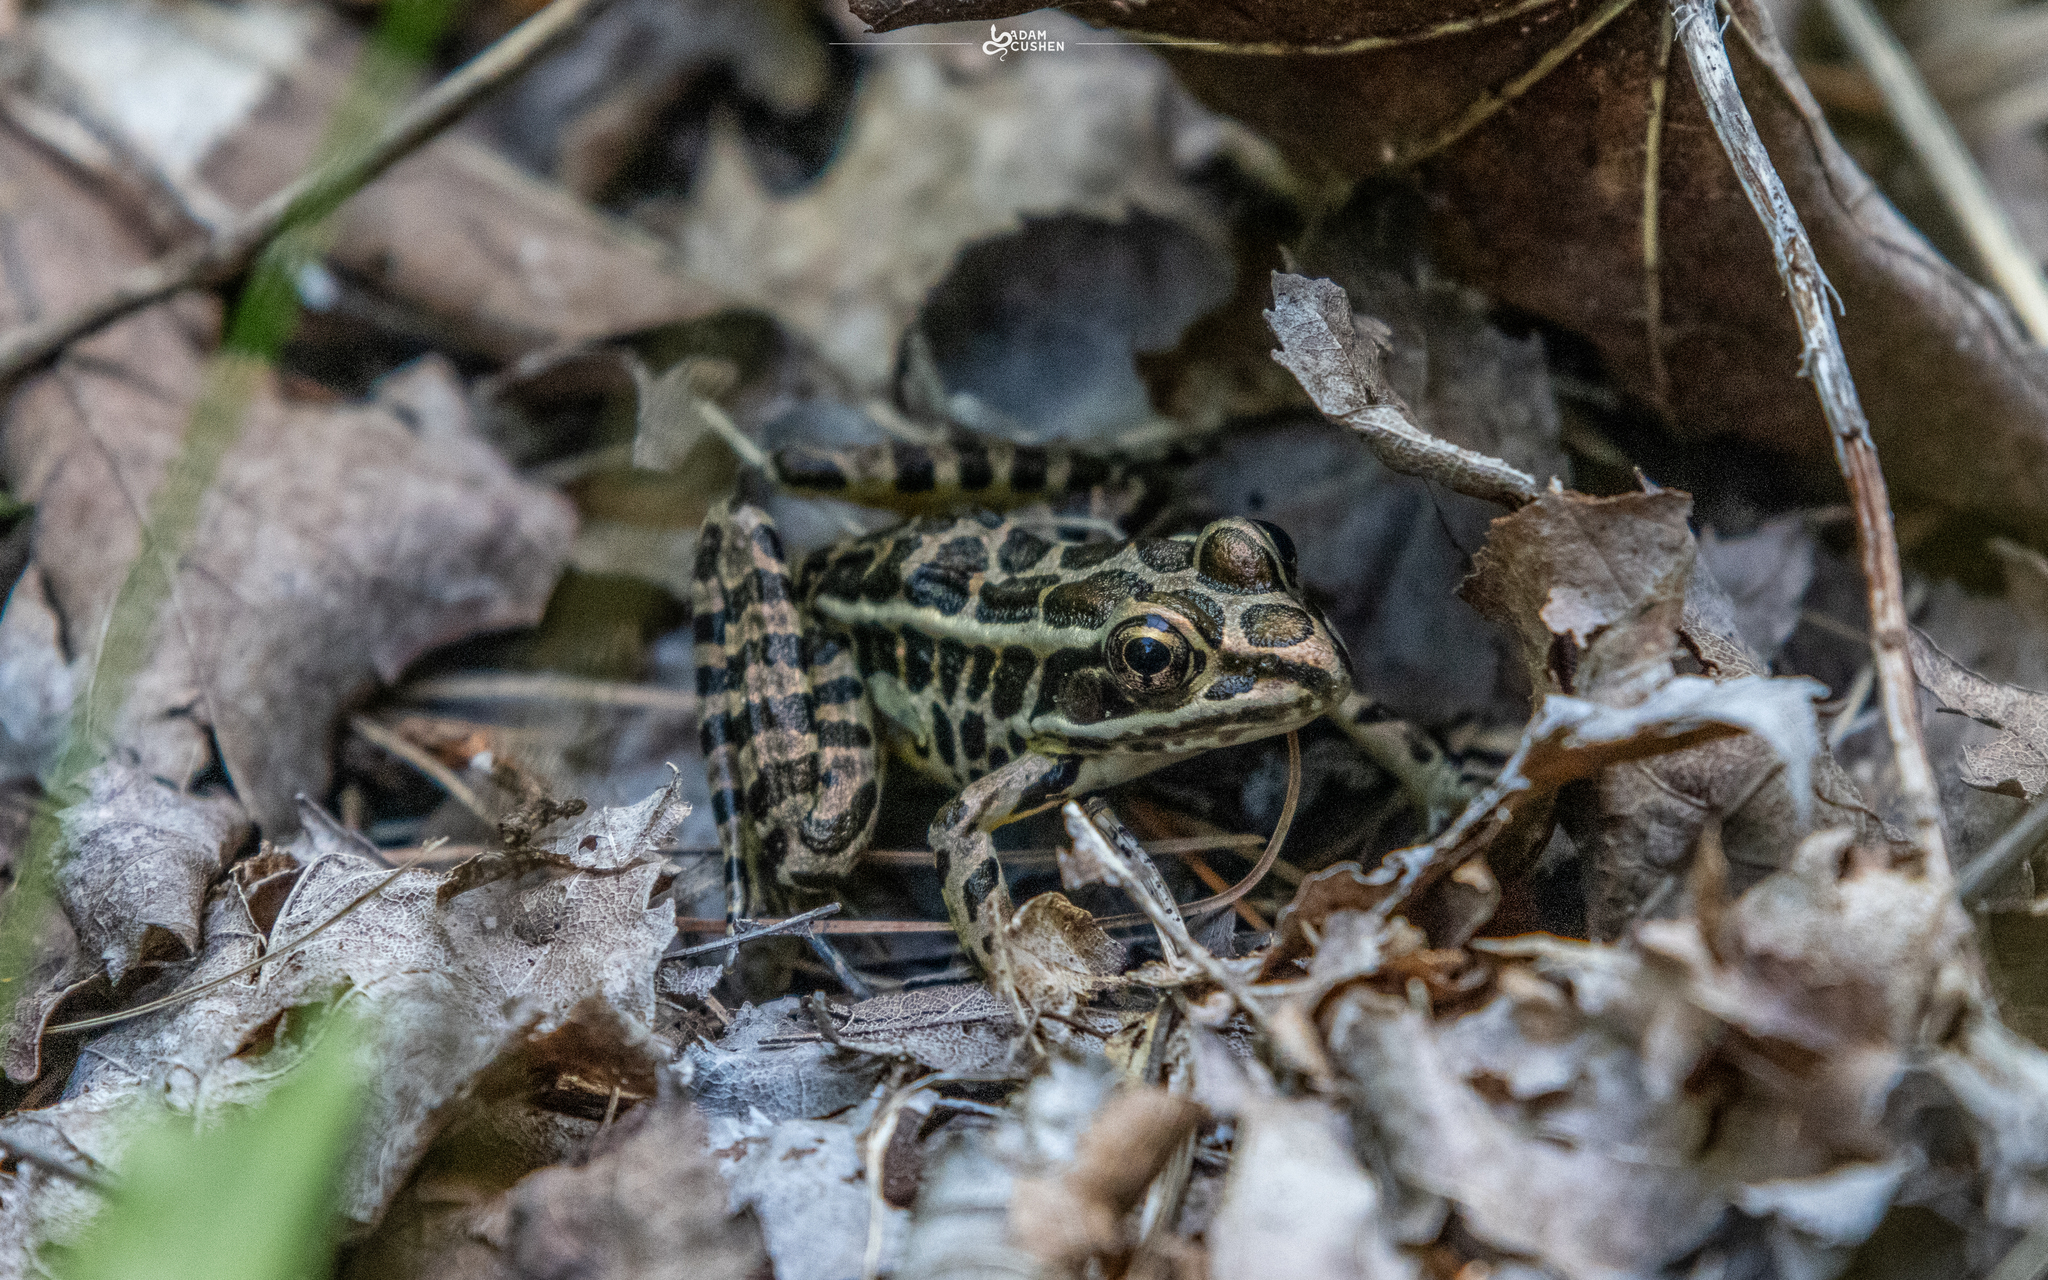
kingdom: Animalia
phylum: Chordata
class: Amphibia
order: Anura
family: Ranidae
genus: Lithobates
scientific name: Lithobates palustris
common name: Pickerel frog
